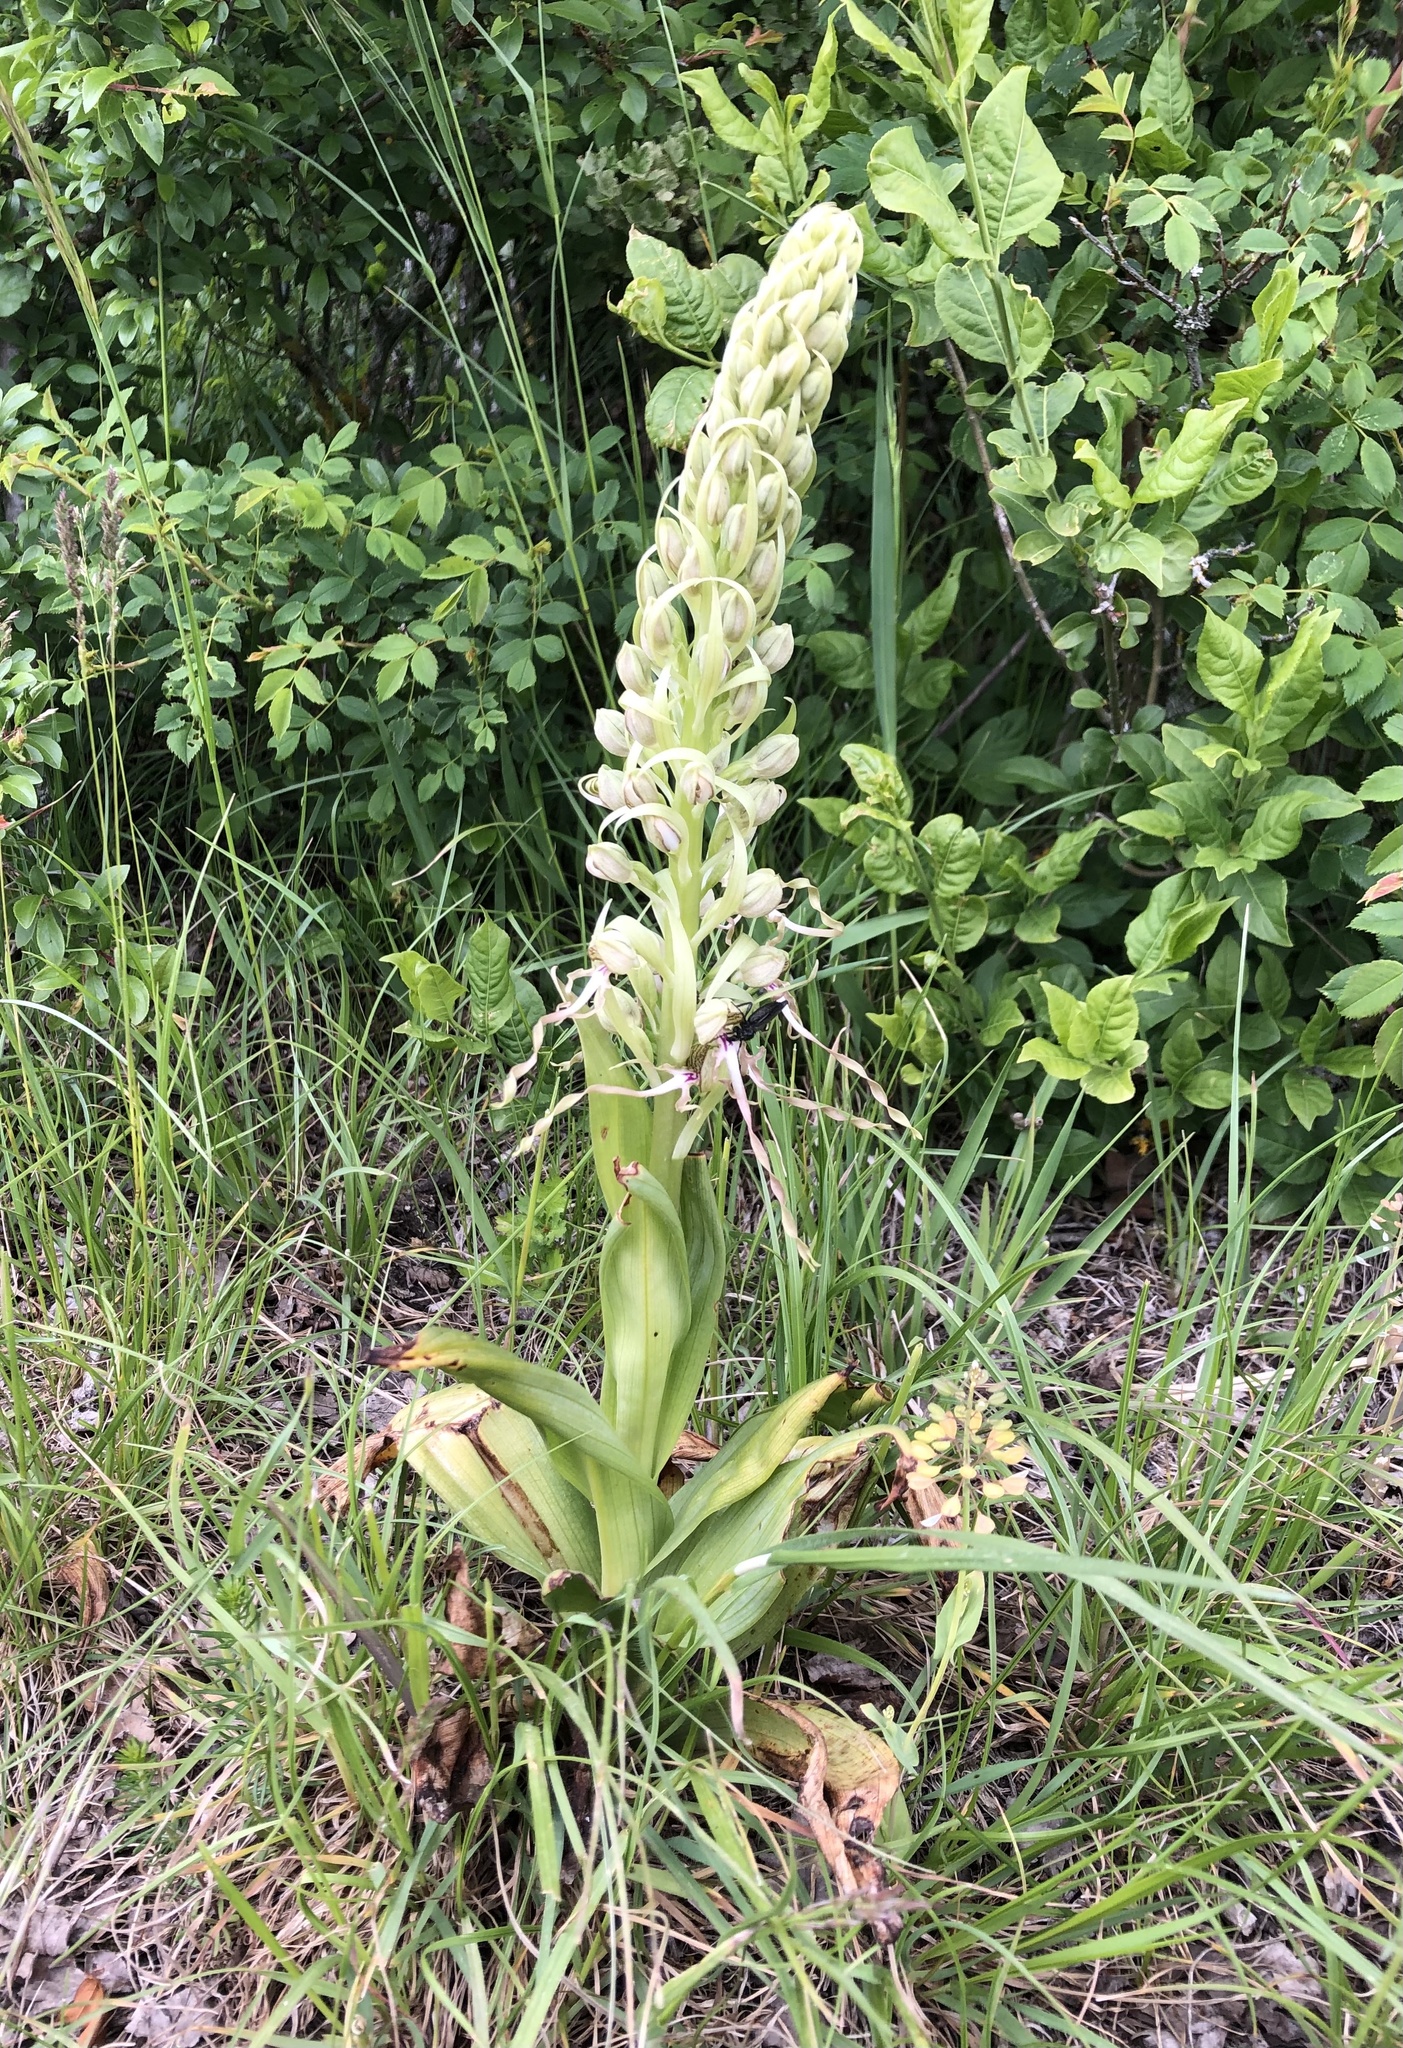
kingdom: Plantae
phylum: Tracheophyta
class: Liliopsida
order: Asparagales
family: Orchidaceae
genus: Himantoglossum
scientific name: Himantoglossum hircinum
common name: Lizard orchid
